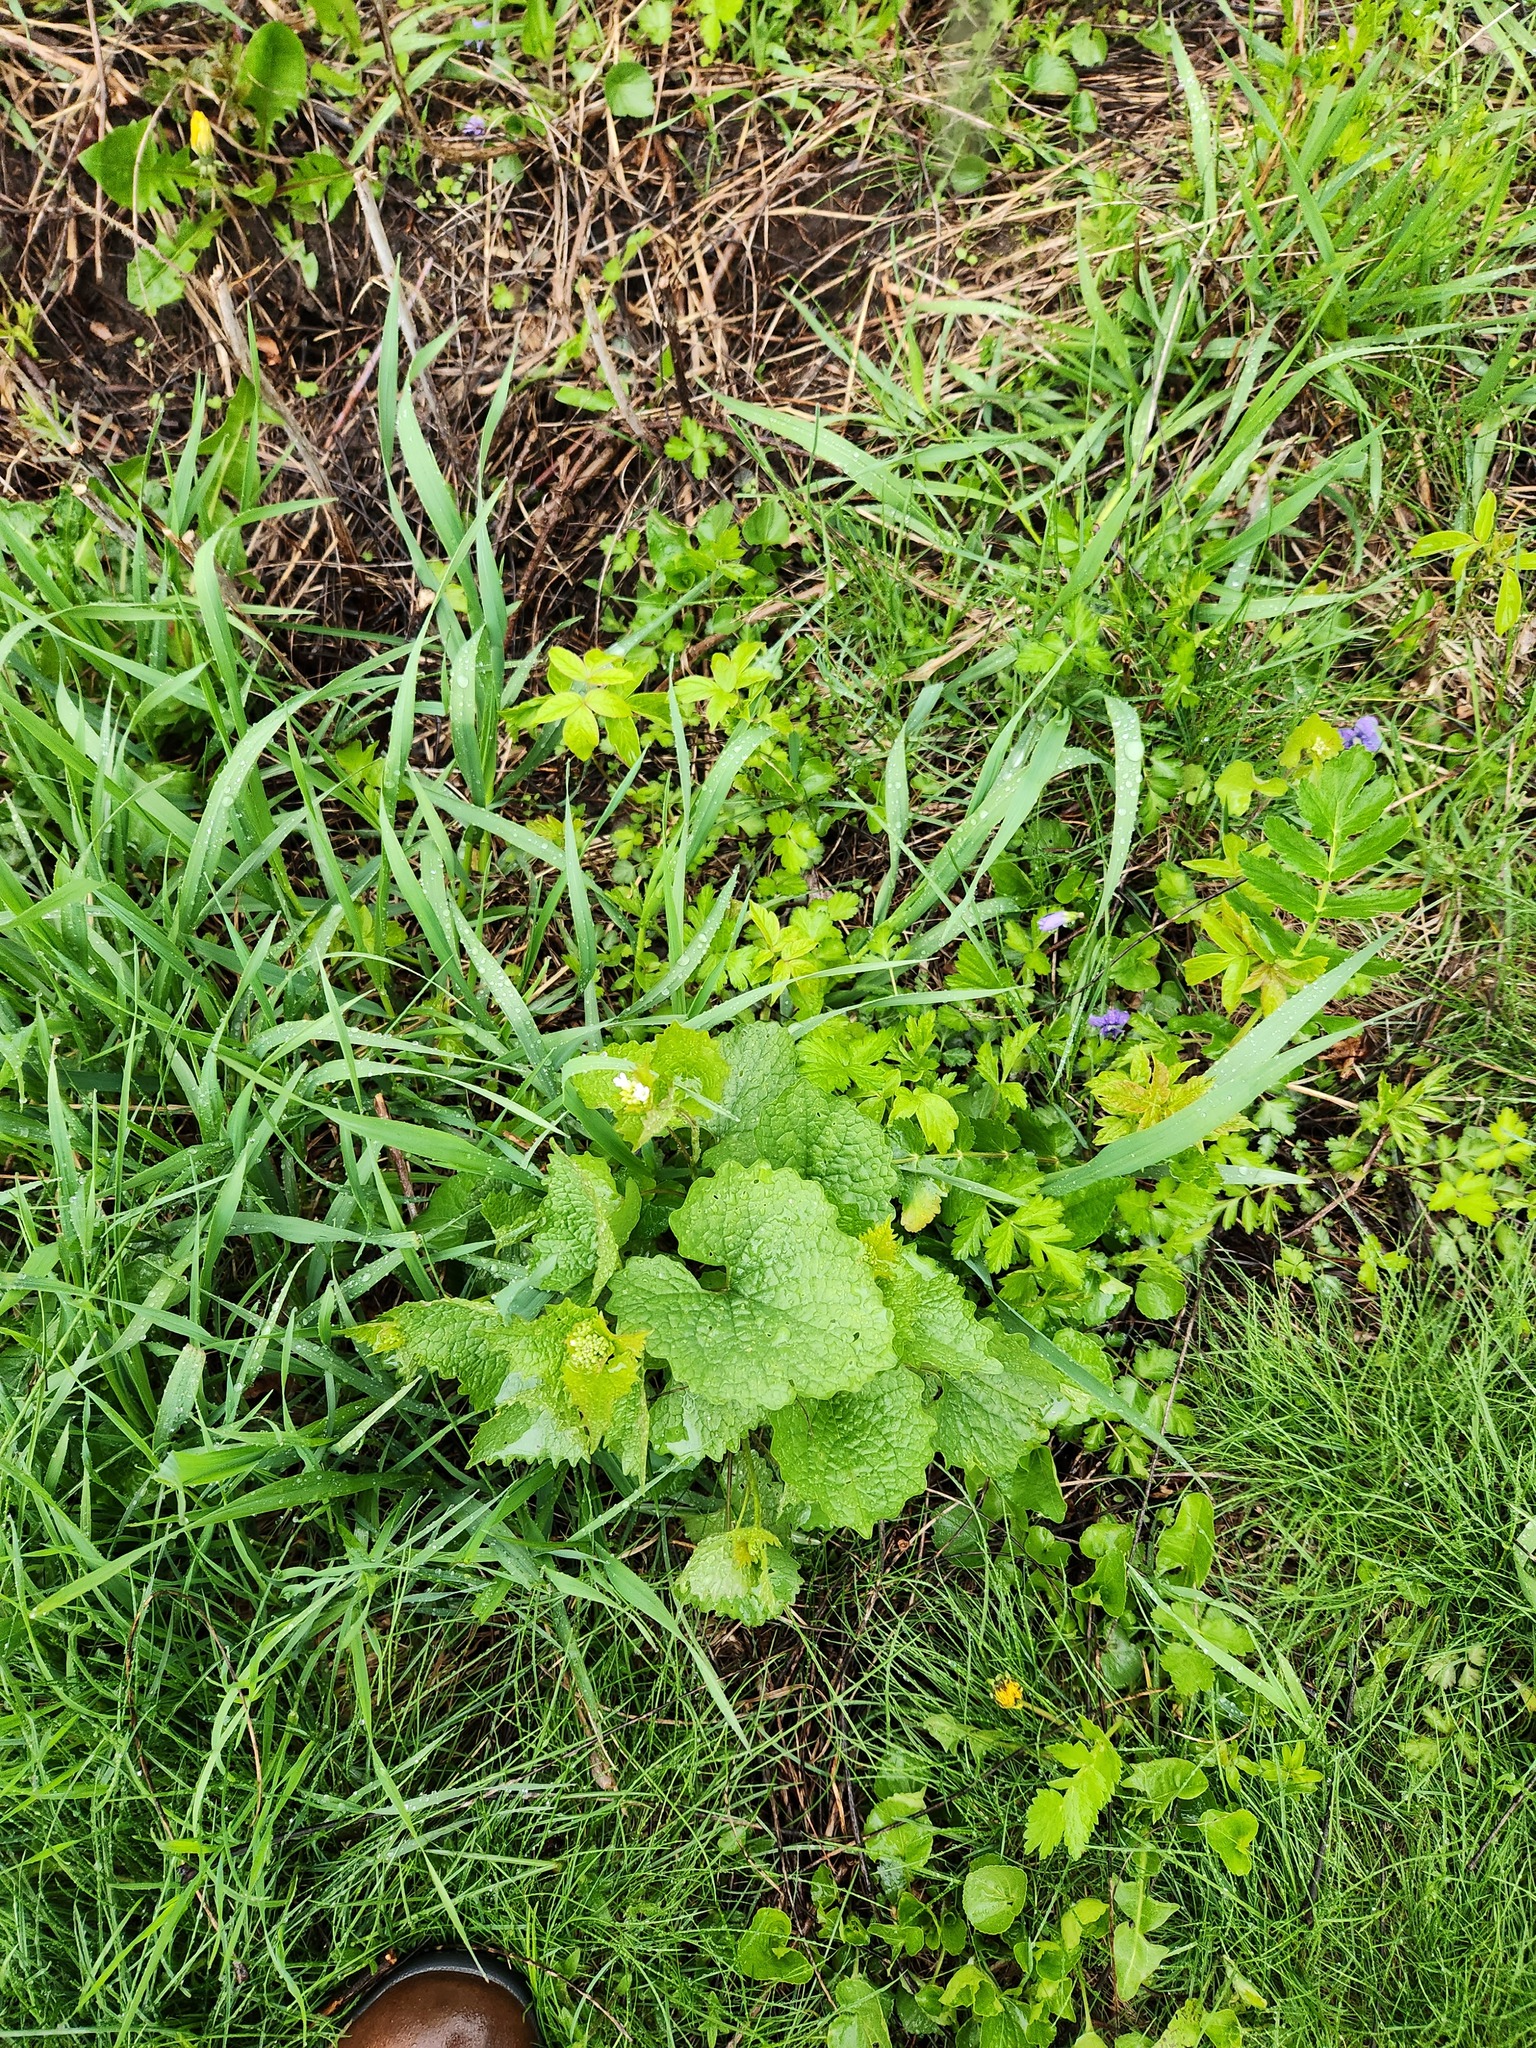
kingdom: Plantae
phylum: Tracheophyta
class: Magnoliopsida
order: Brassicales
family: Brassicaceae
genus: Alliaria
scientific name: Alliaria petiolata
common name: Garlic mustard
